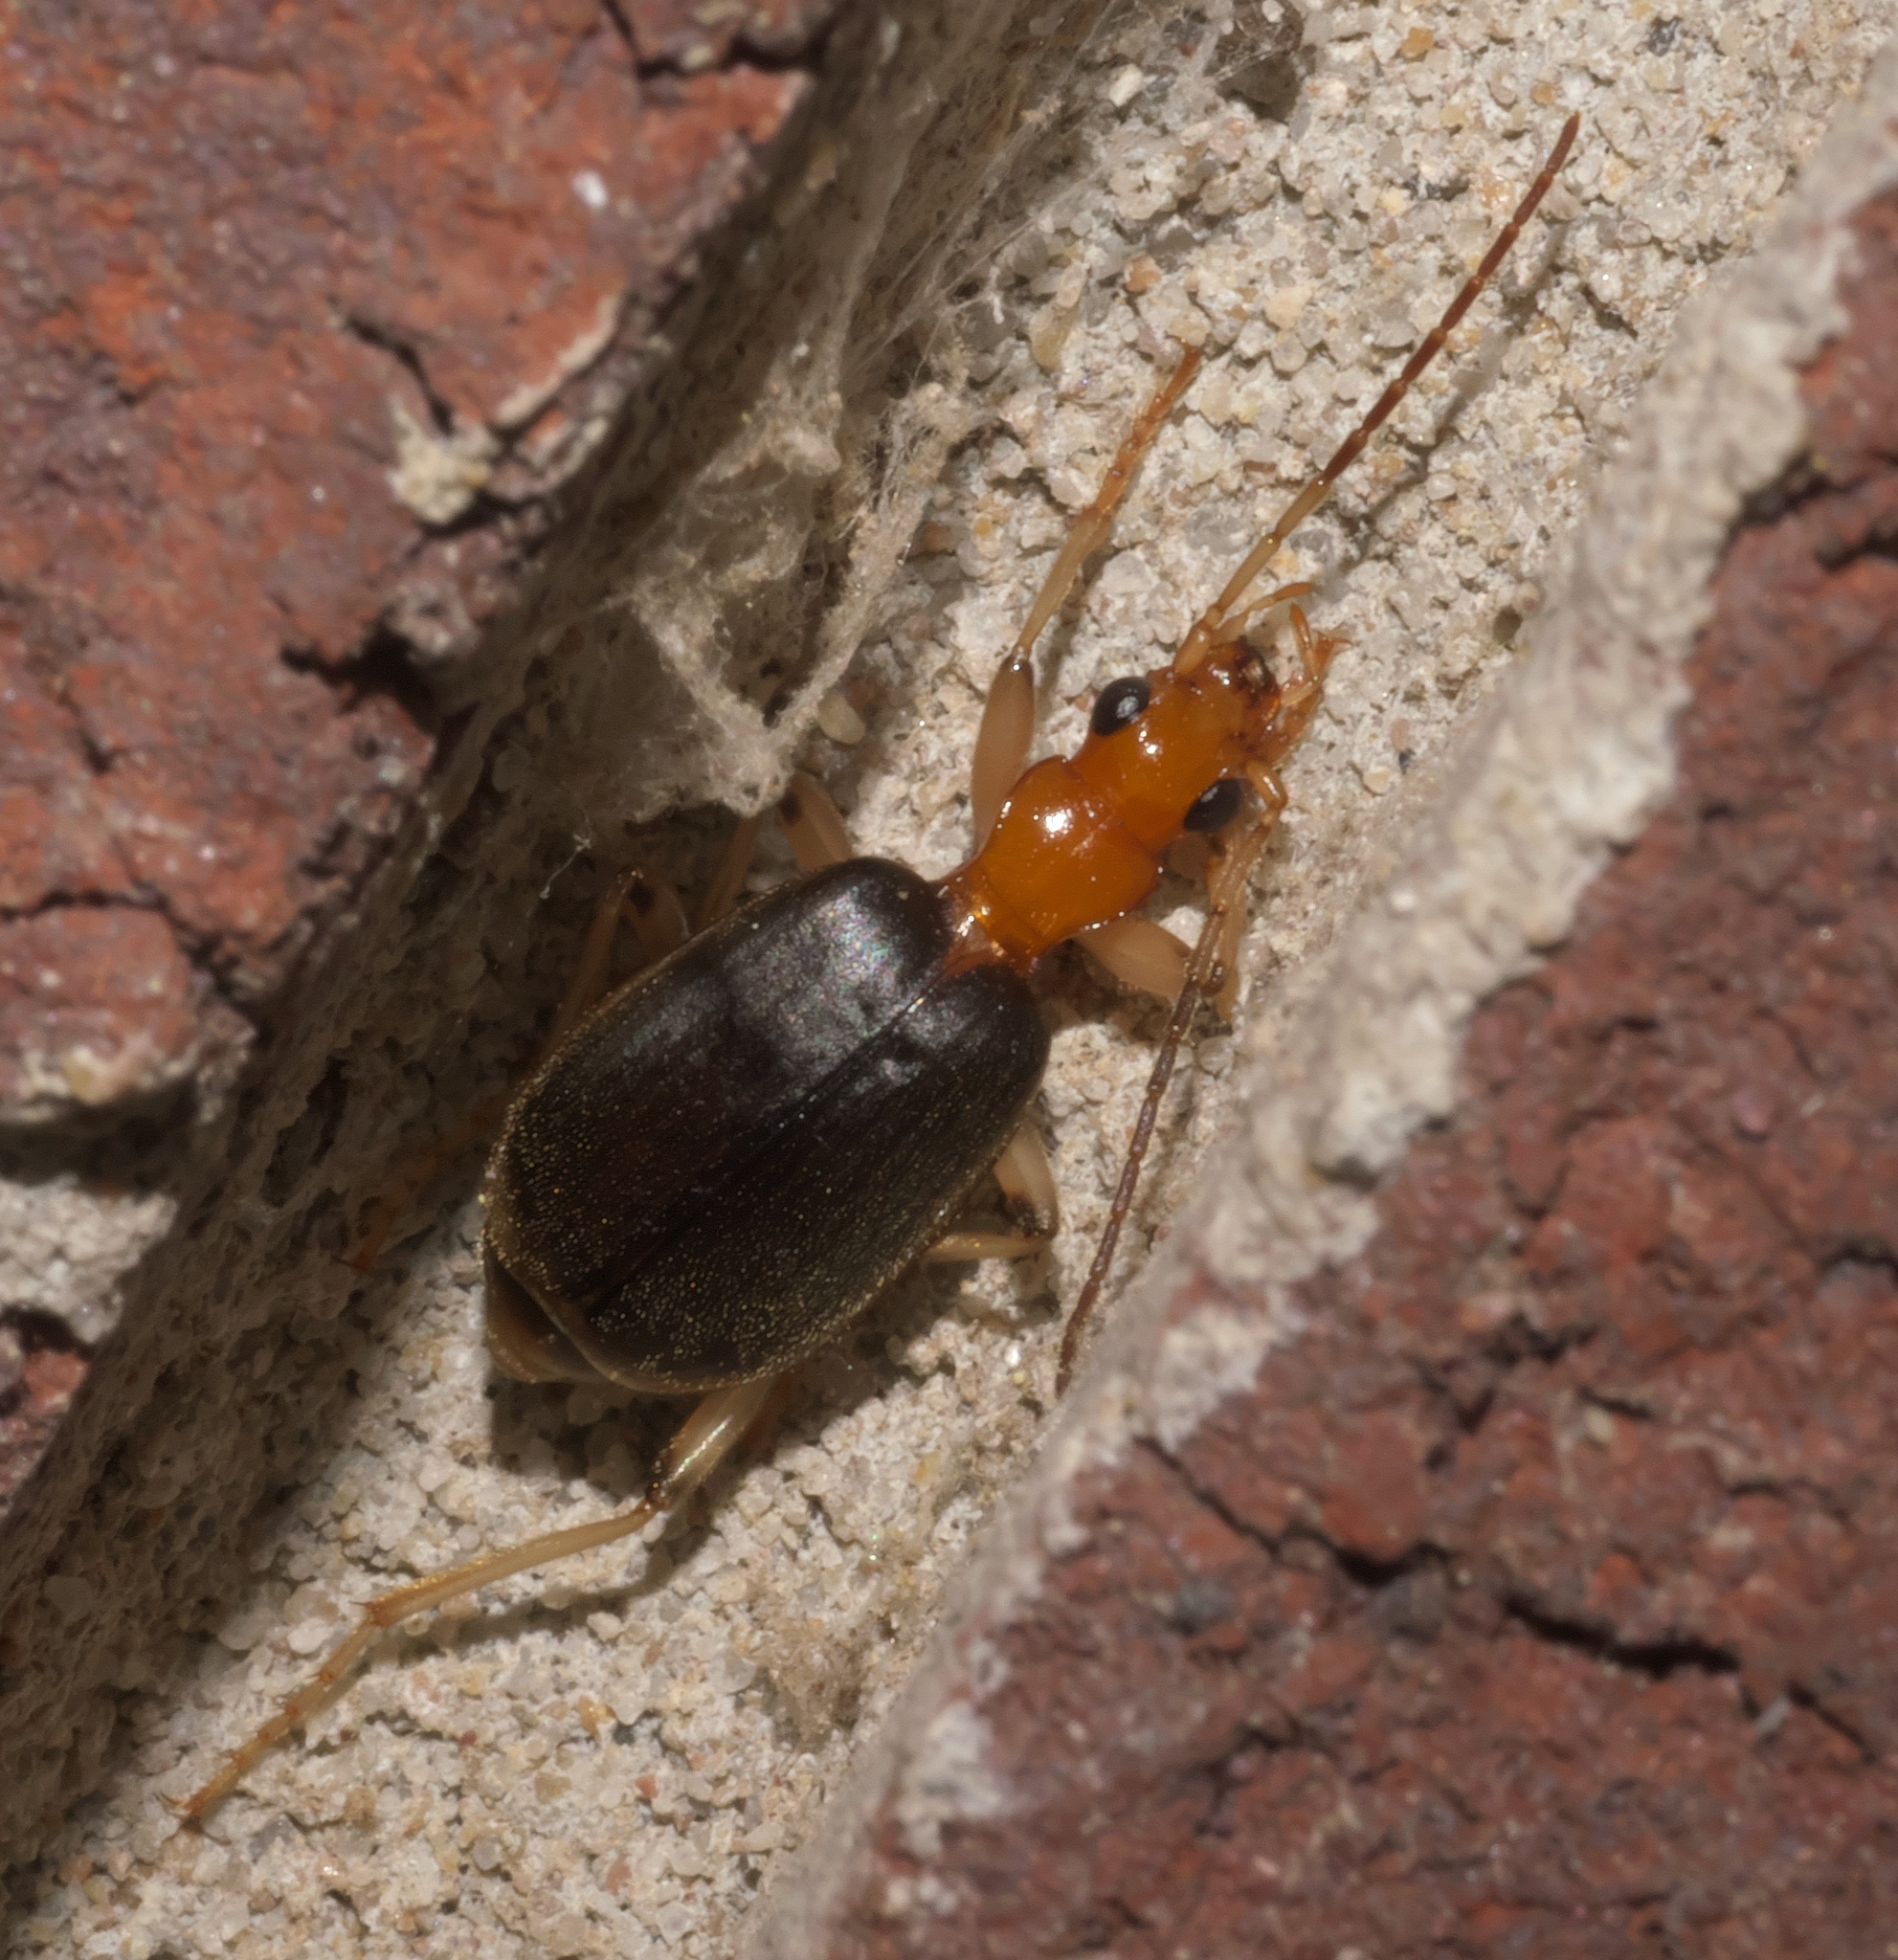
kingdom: Animalia
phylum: Arthropoda
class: Insecta
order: Coleoptera
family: Carabidae
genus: Brachinus
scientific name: Brachinus adustipennis
